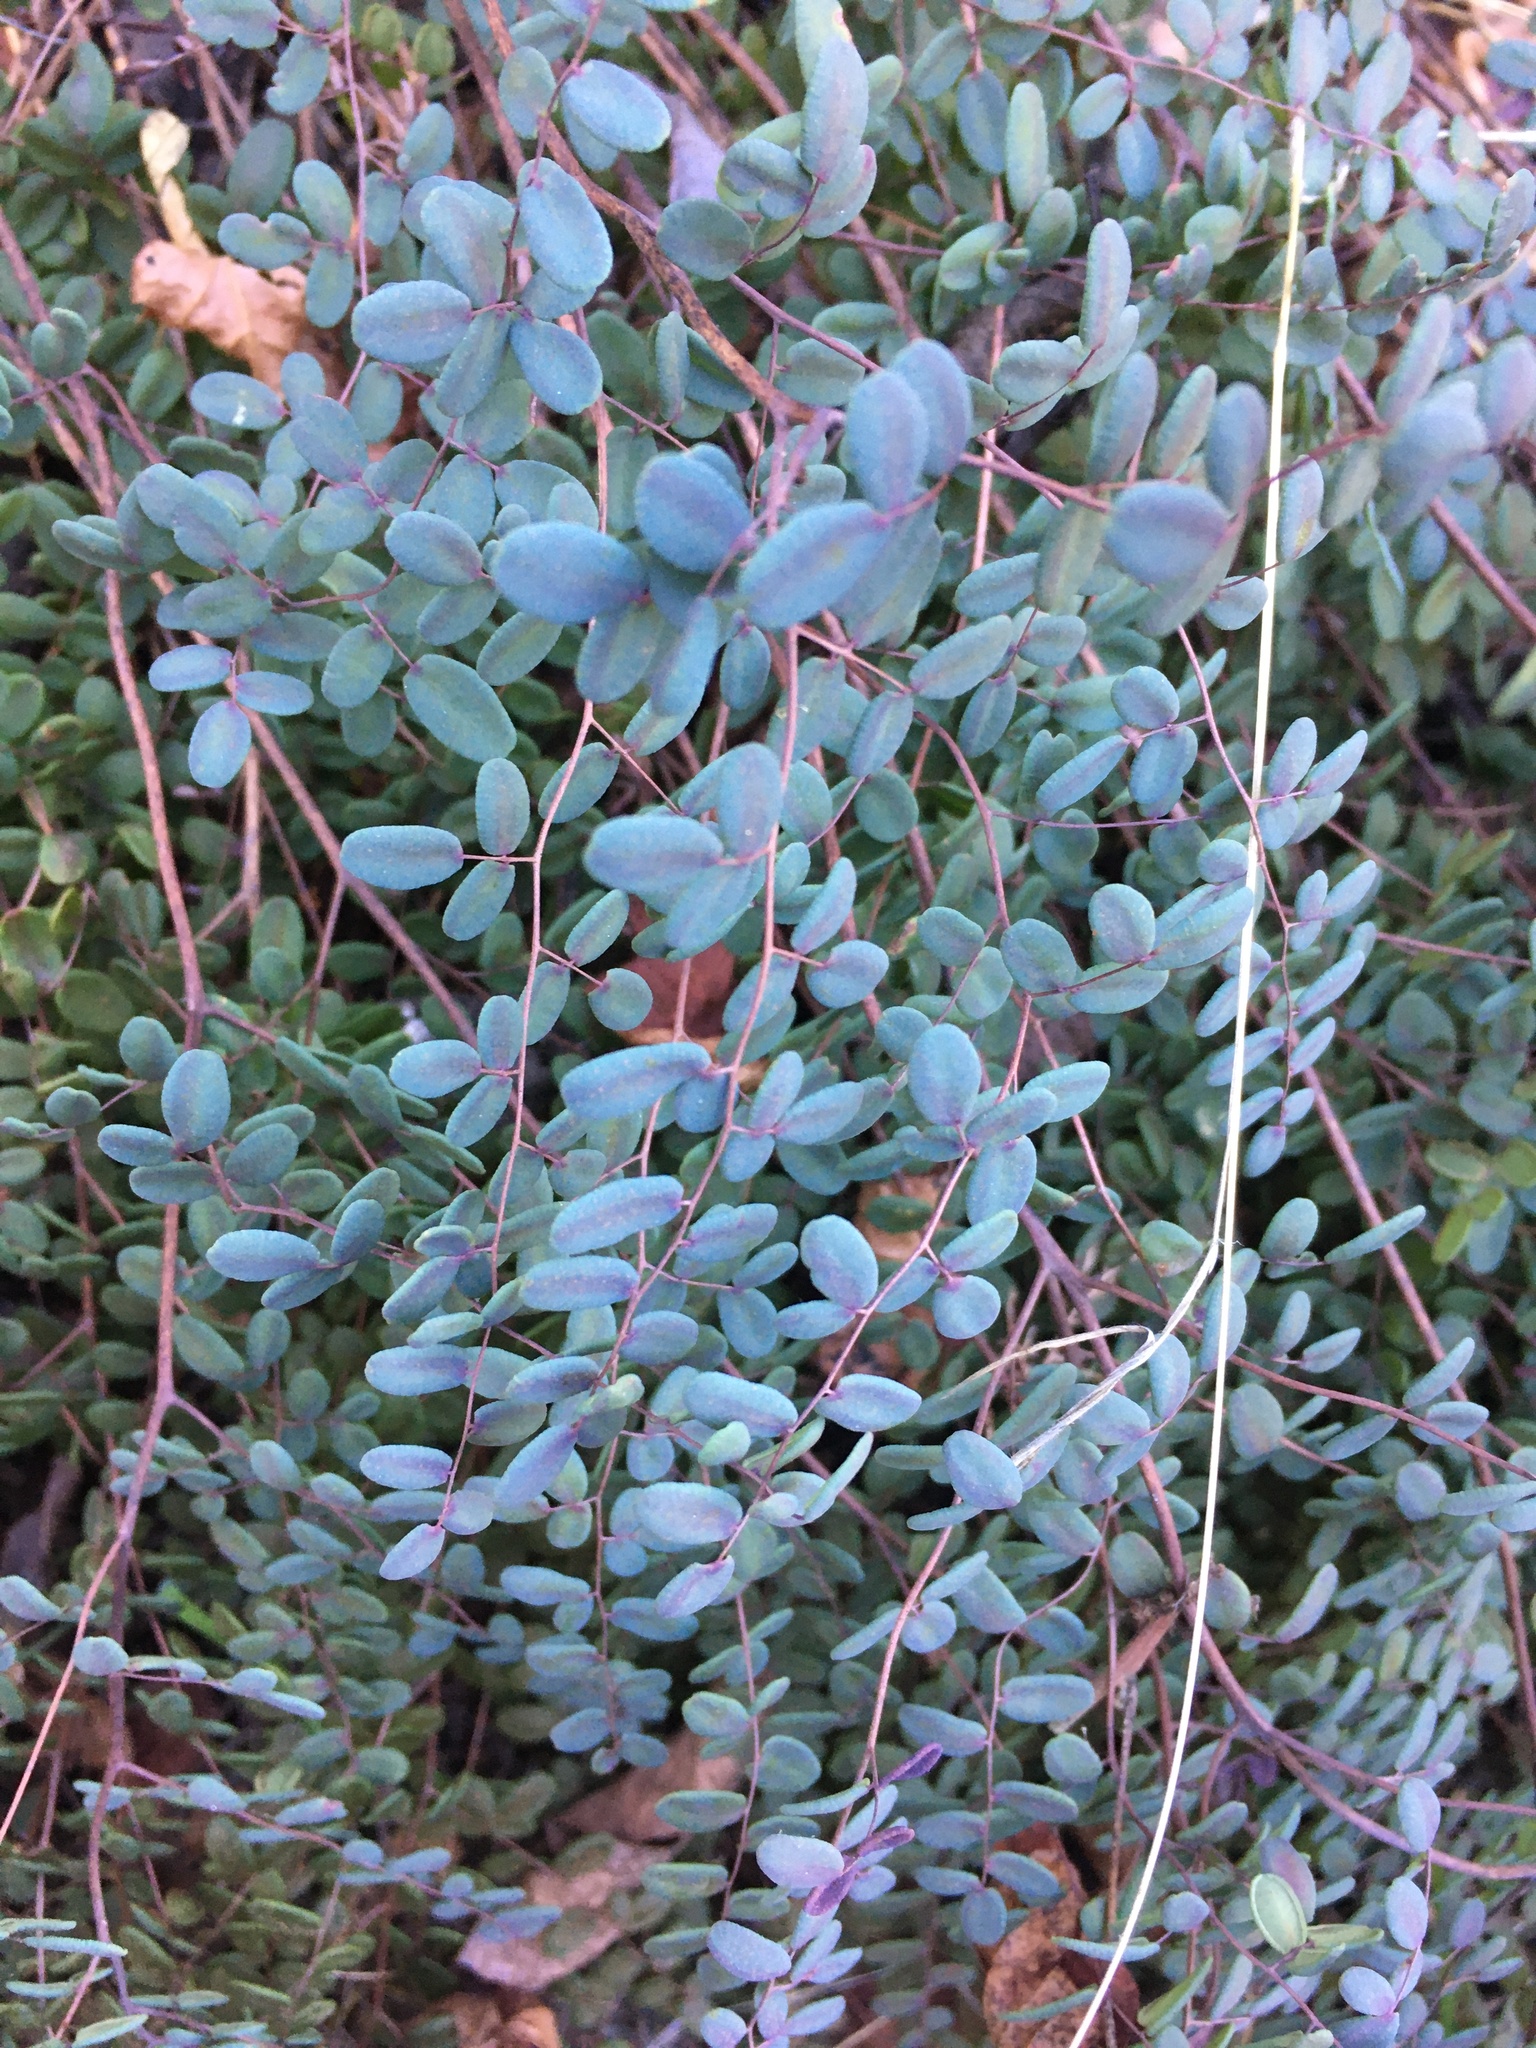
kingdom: Plantae
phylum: Tracheophyta
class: Polypodiopsida
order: Polypodiales
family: Pteridaceae
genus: Pellaea
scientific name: Pellaea andromedifolia
